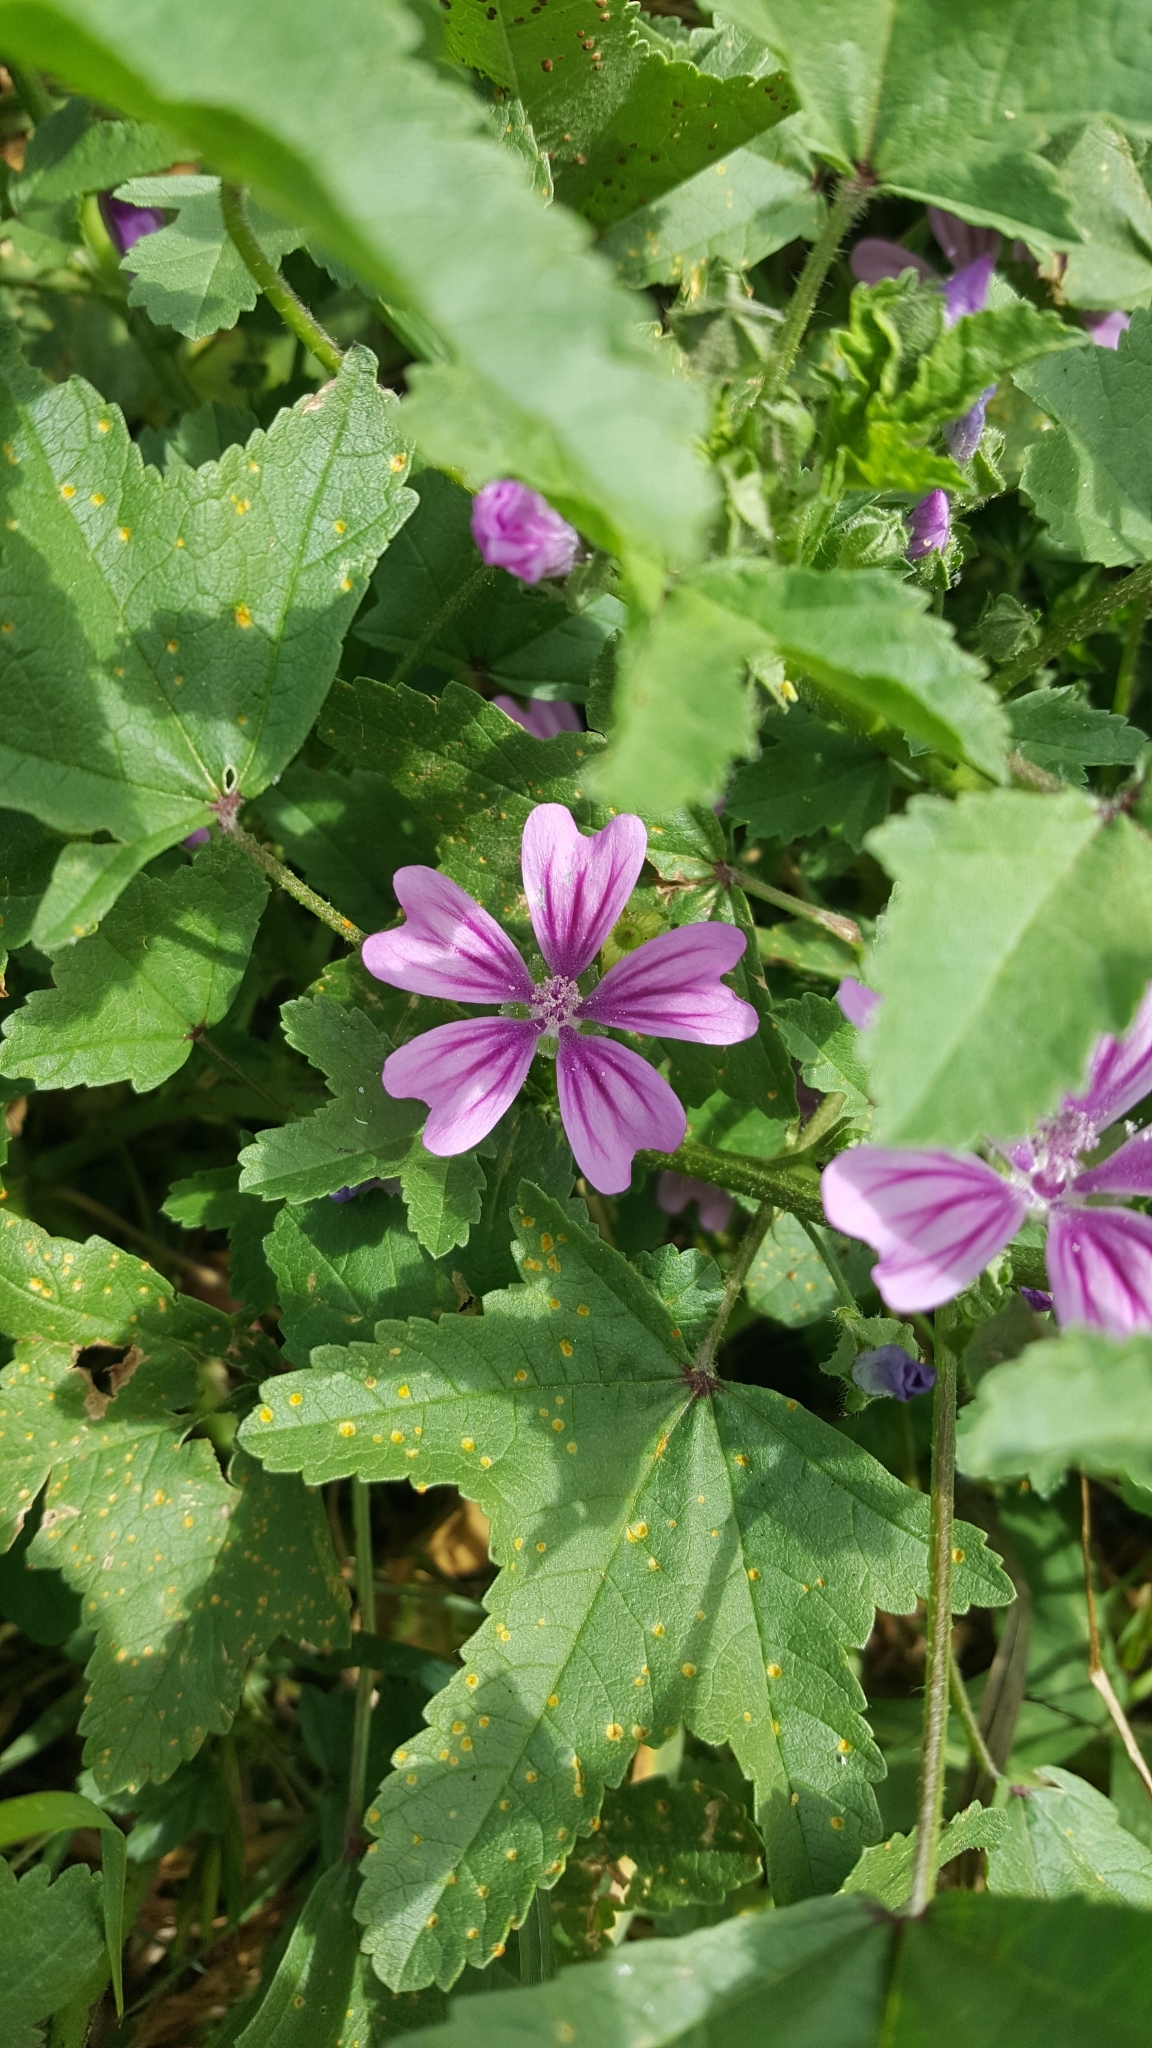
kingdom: Plantae
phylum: Tracheophyta
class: Magnoliopsida
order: Malvales
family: Malvaceae
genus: Malva
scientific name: Malva sylvestris
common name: Common mallow
